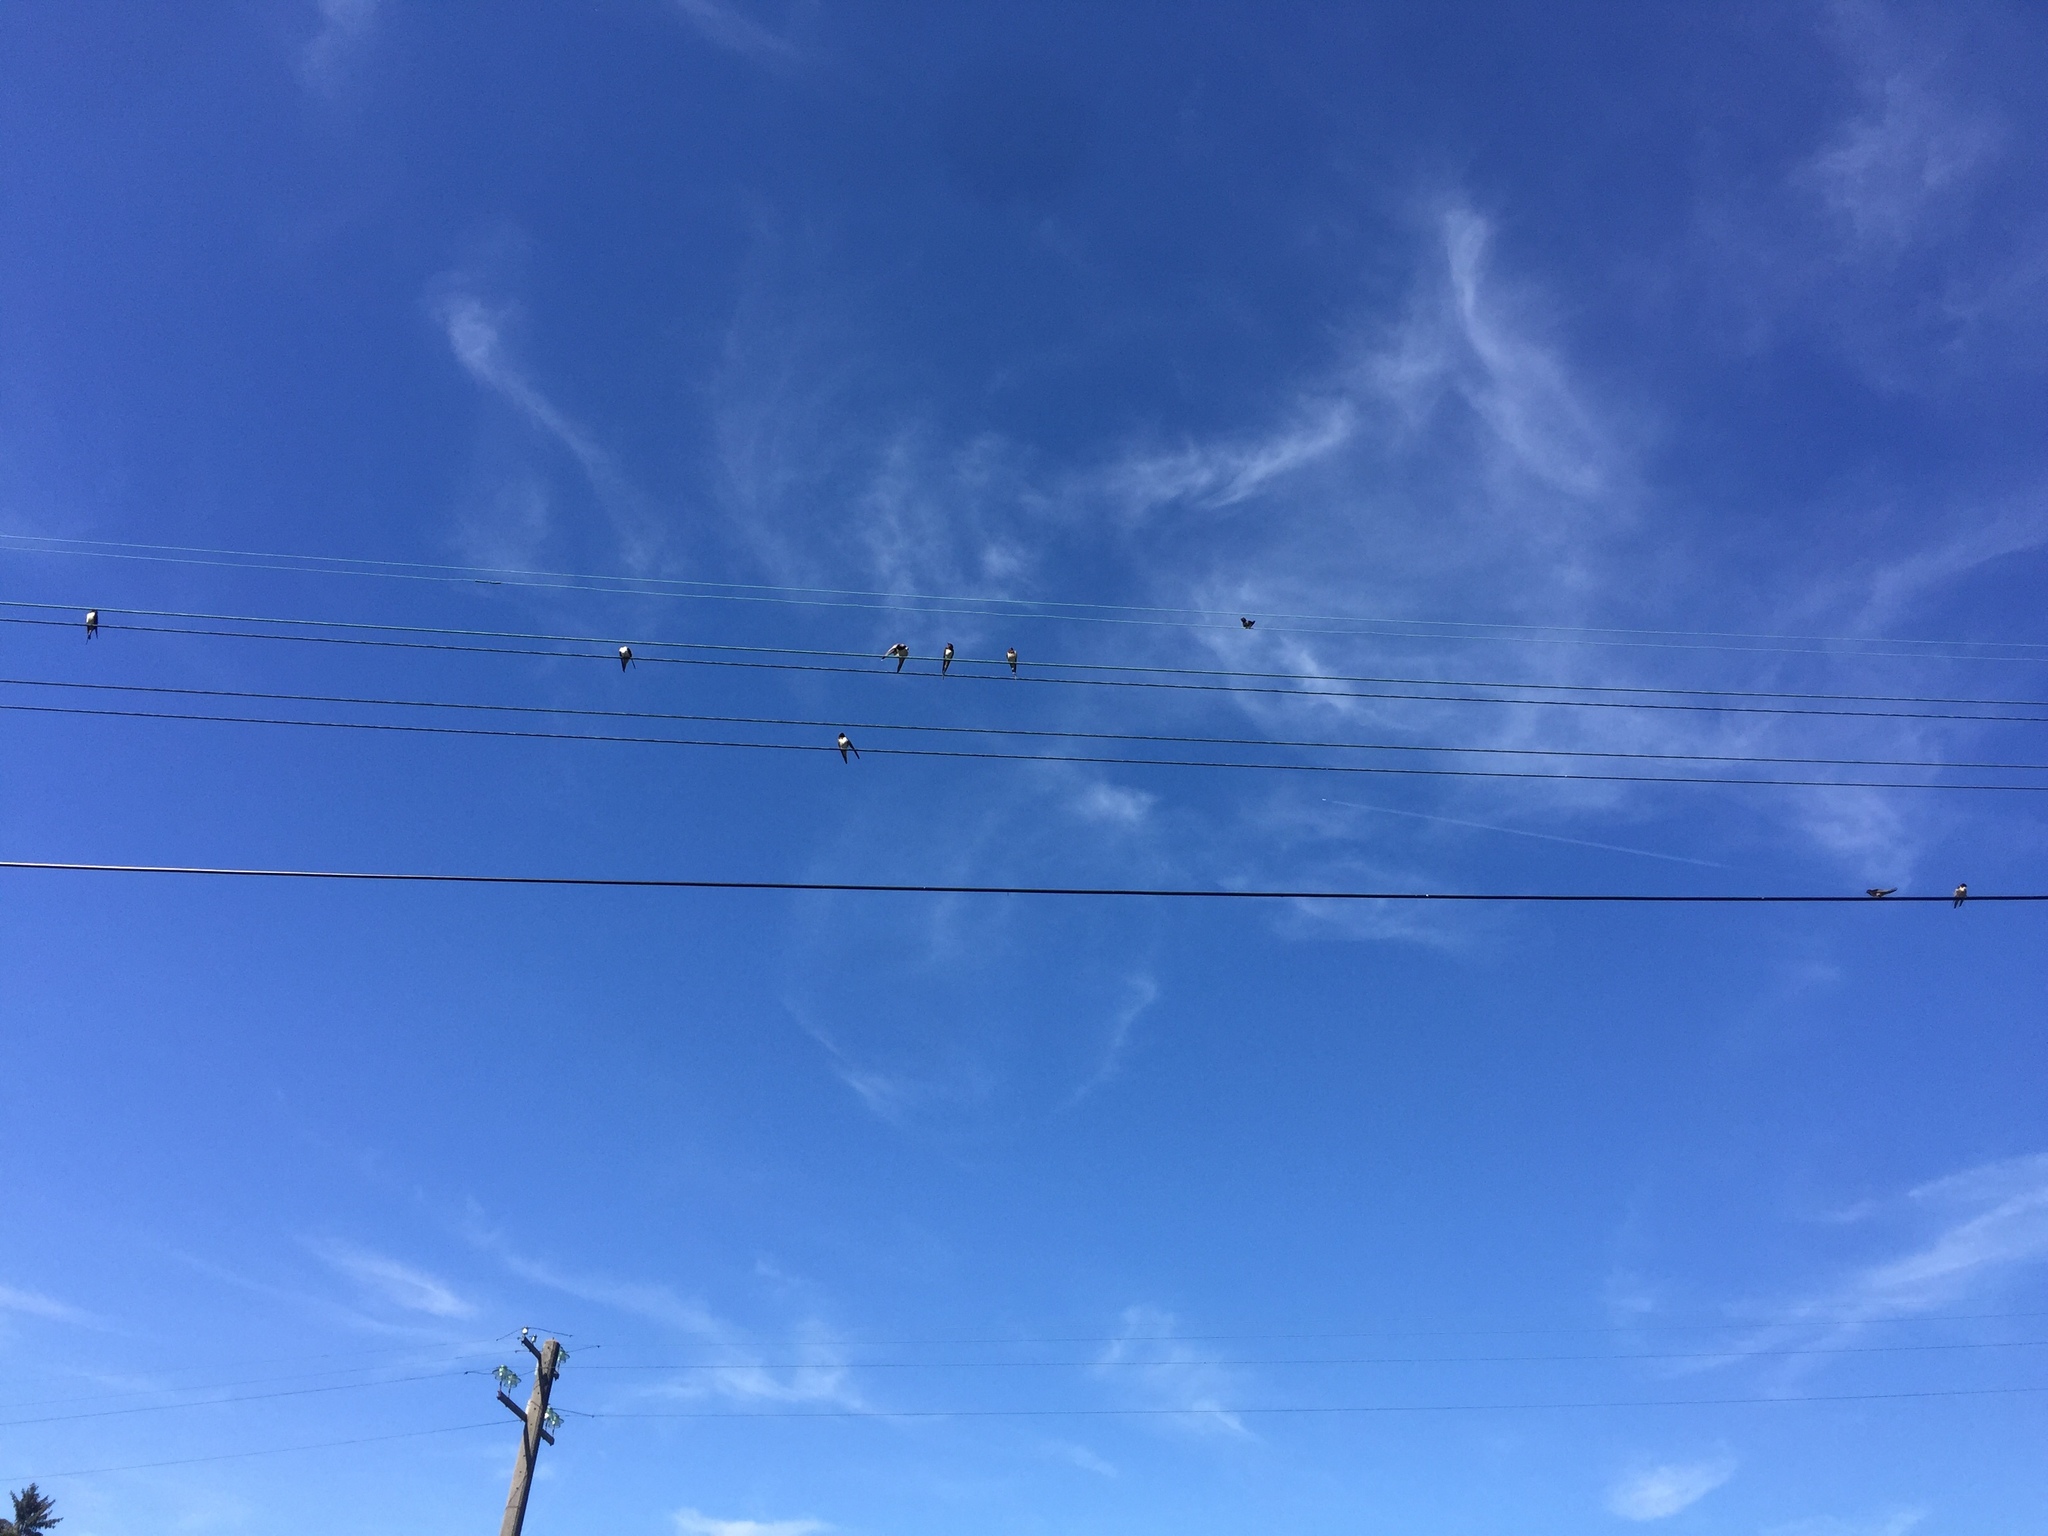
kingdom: Animalia
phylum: Chordata
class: Aves
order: Passeriformes
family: Hirundinidae
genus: Hirundo
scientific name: Hirundo rustica
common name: Barn swallow
